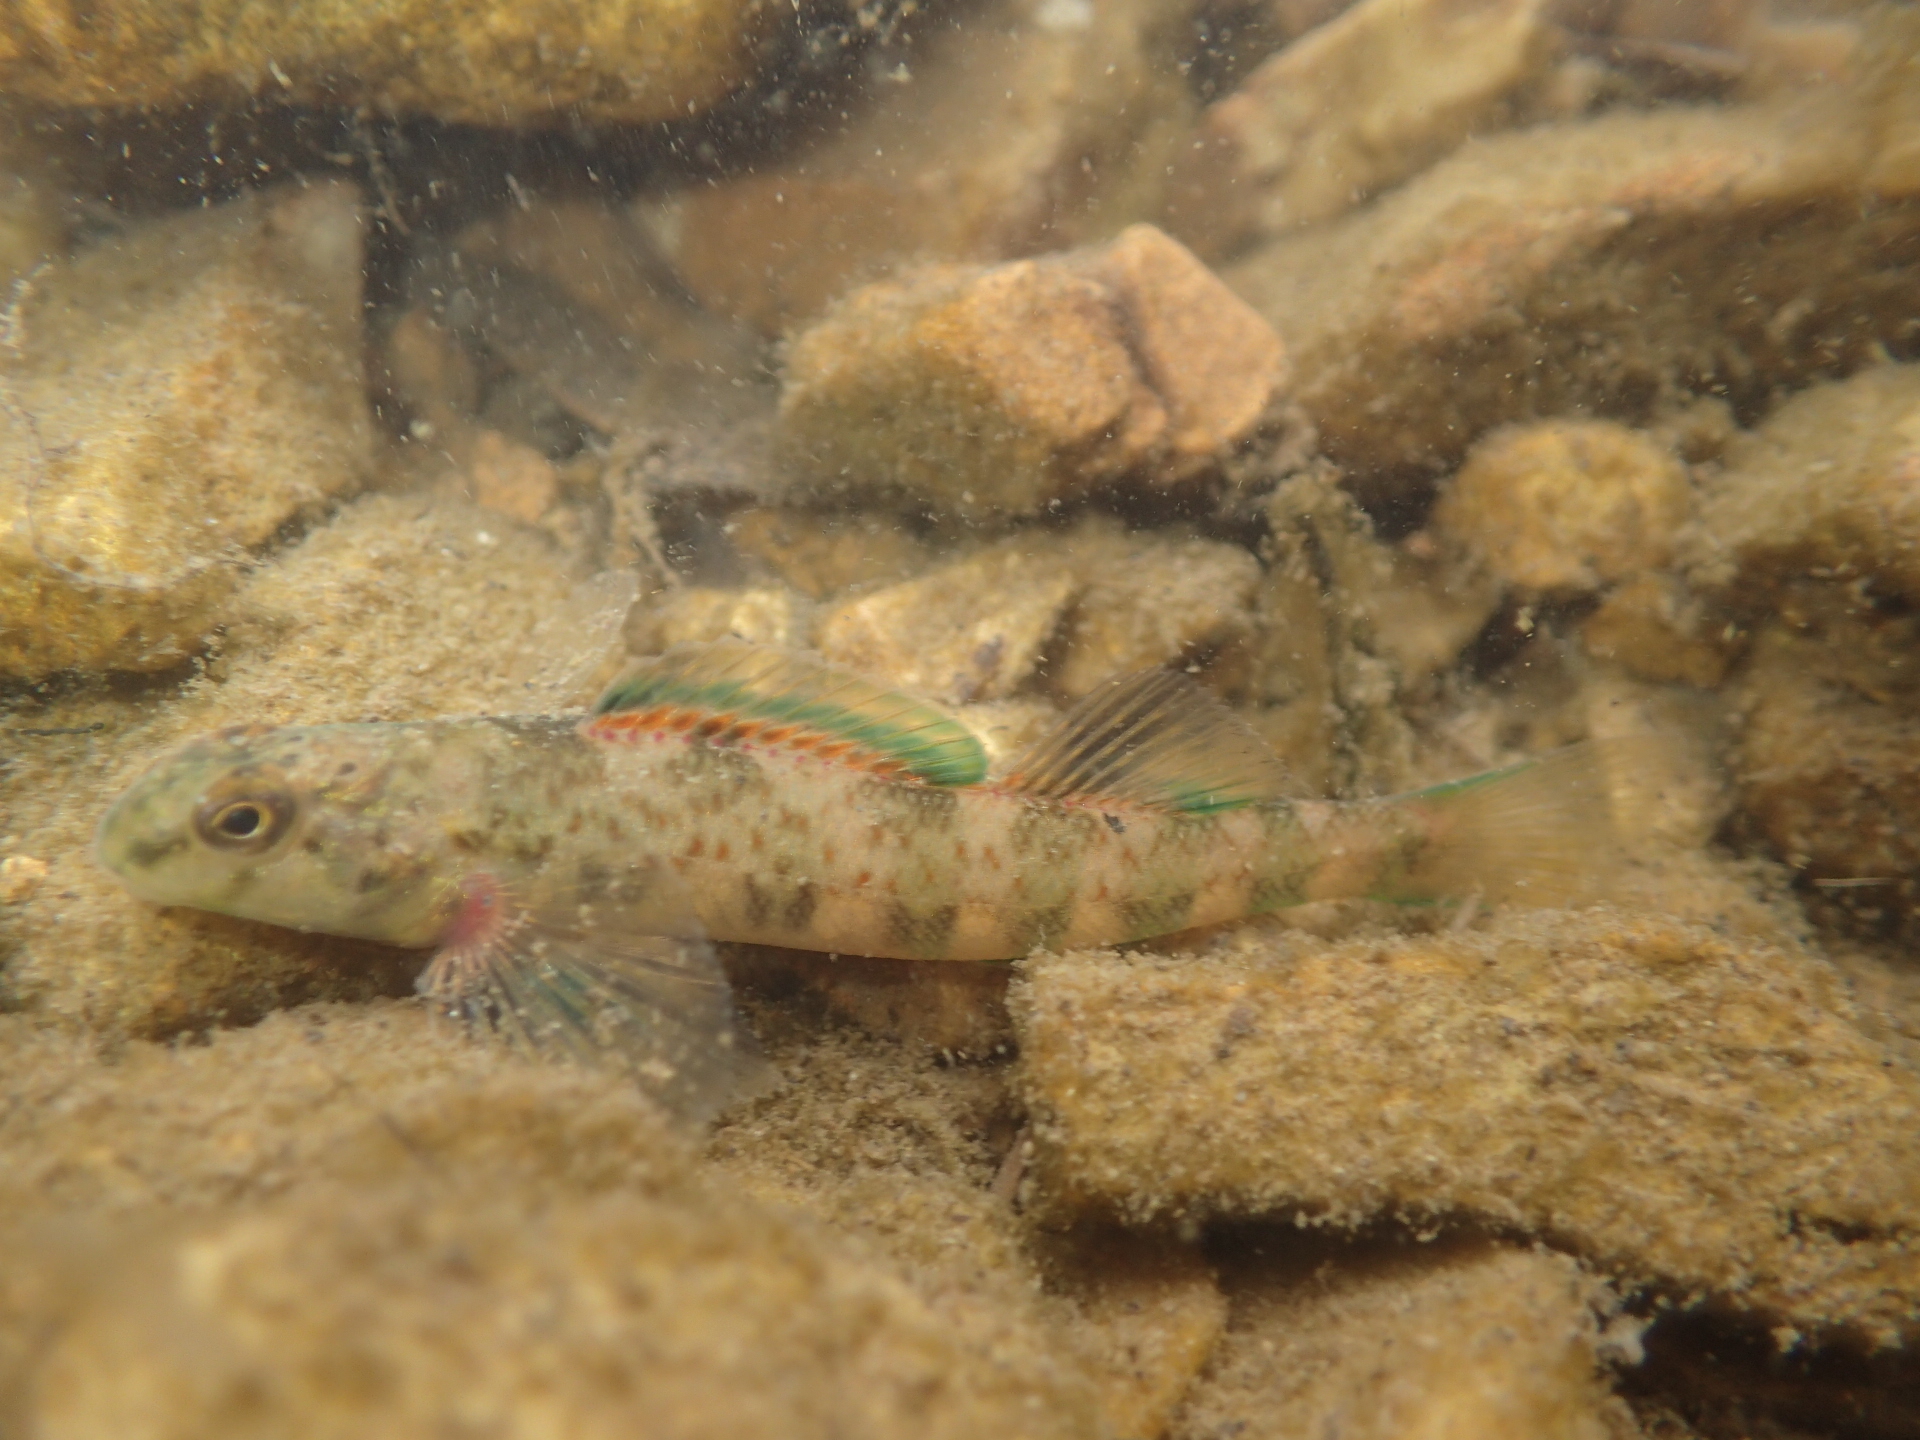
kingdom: Animalia
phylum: Chordata
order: Perciformes
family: Percidae
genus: Etheostoma
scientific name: Etheostoma blennioides
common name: Greenside darter
